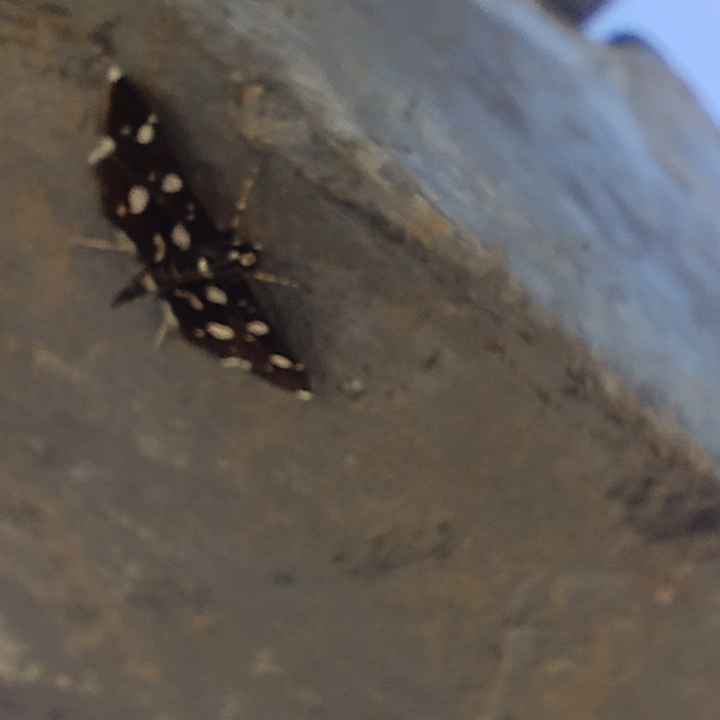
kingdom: Animalia
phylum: Arthropoda
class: Insecta
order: Lepidoptera
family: Crambidae
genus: Bocchoris
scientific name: Bocchoris inspersalis
